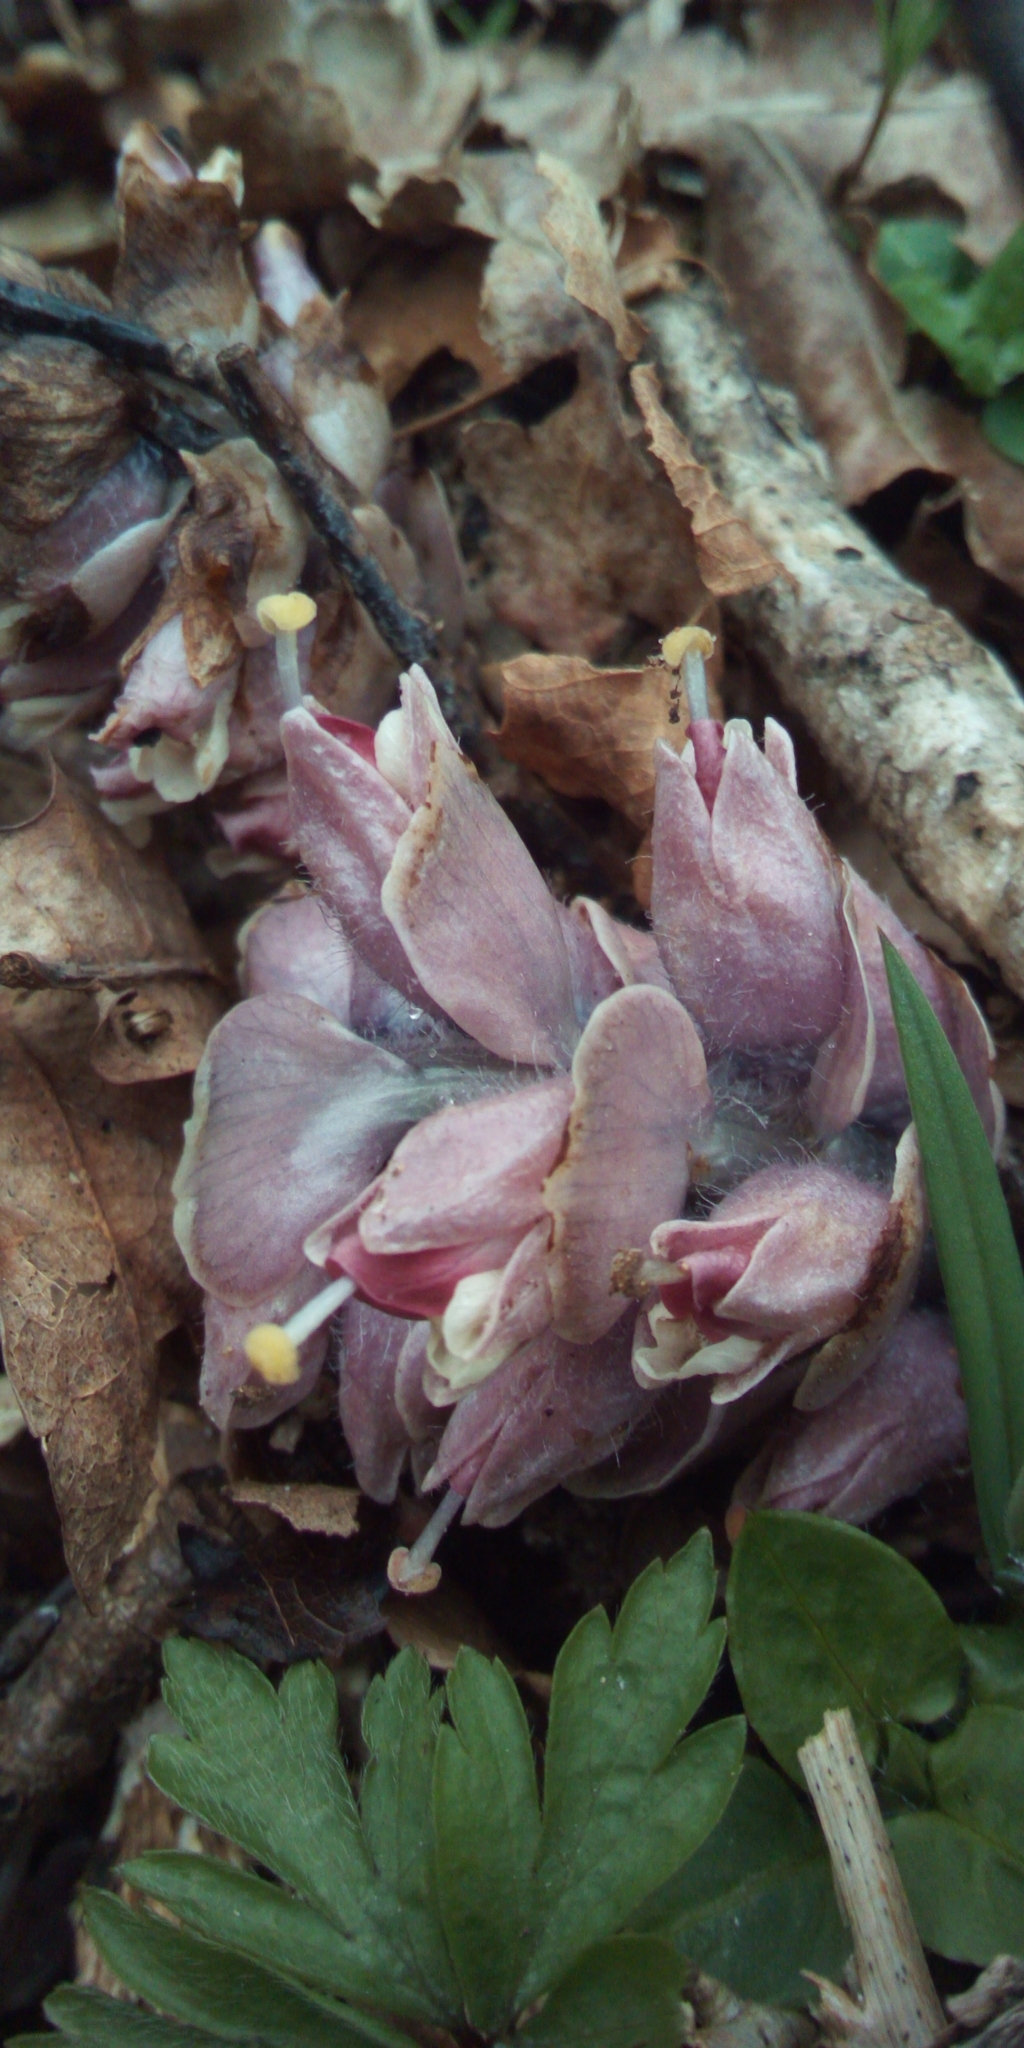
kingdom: Plantae
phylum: Tracheophyta
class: Magnoliopsida
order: Lamiales
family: Orobanchaceae
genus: Lathraea
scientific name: Lathraea squamaria
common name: Toothwort
